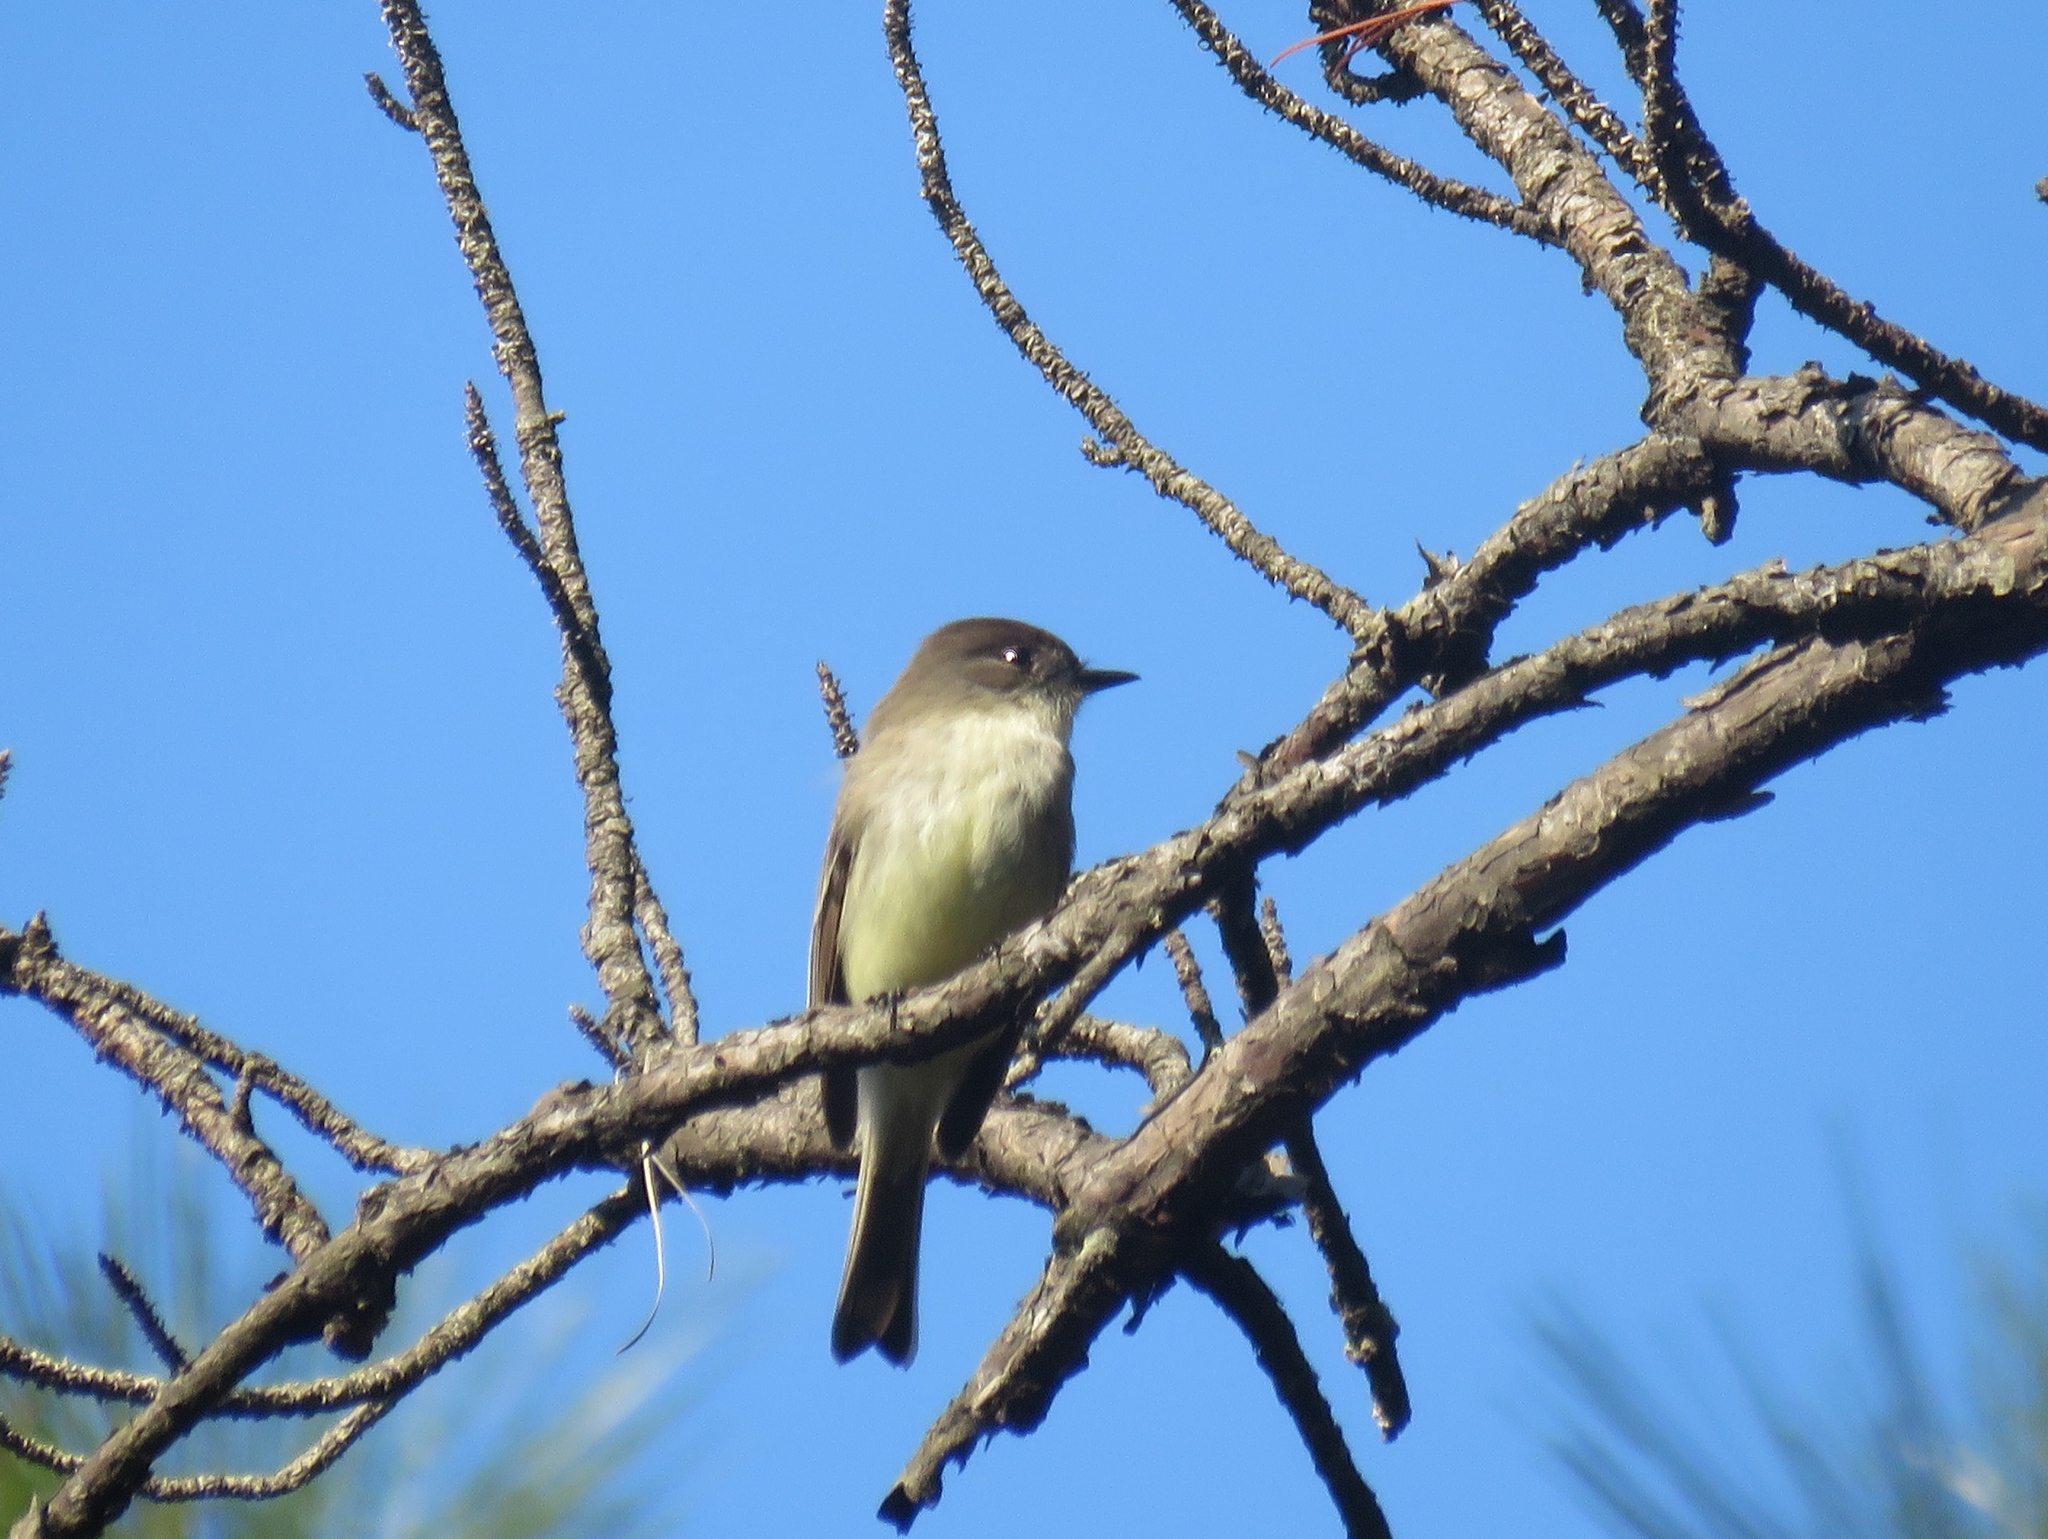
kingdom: Animalia
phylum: Chordata
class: Aves
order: Passeriformes
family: Tyrannidae
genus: Sayornis
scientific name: Sayornis phoebe
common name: Eastern phoebe
